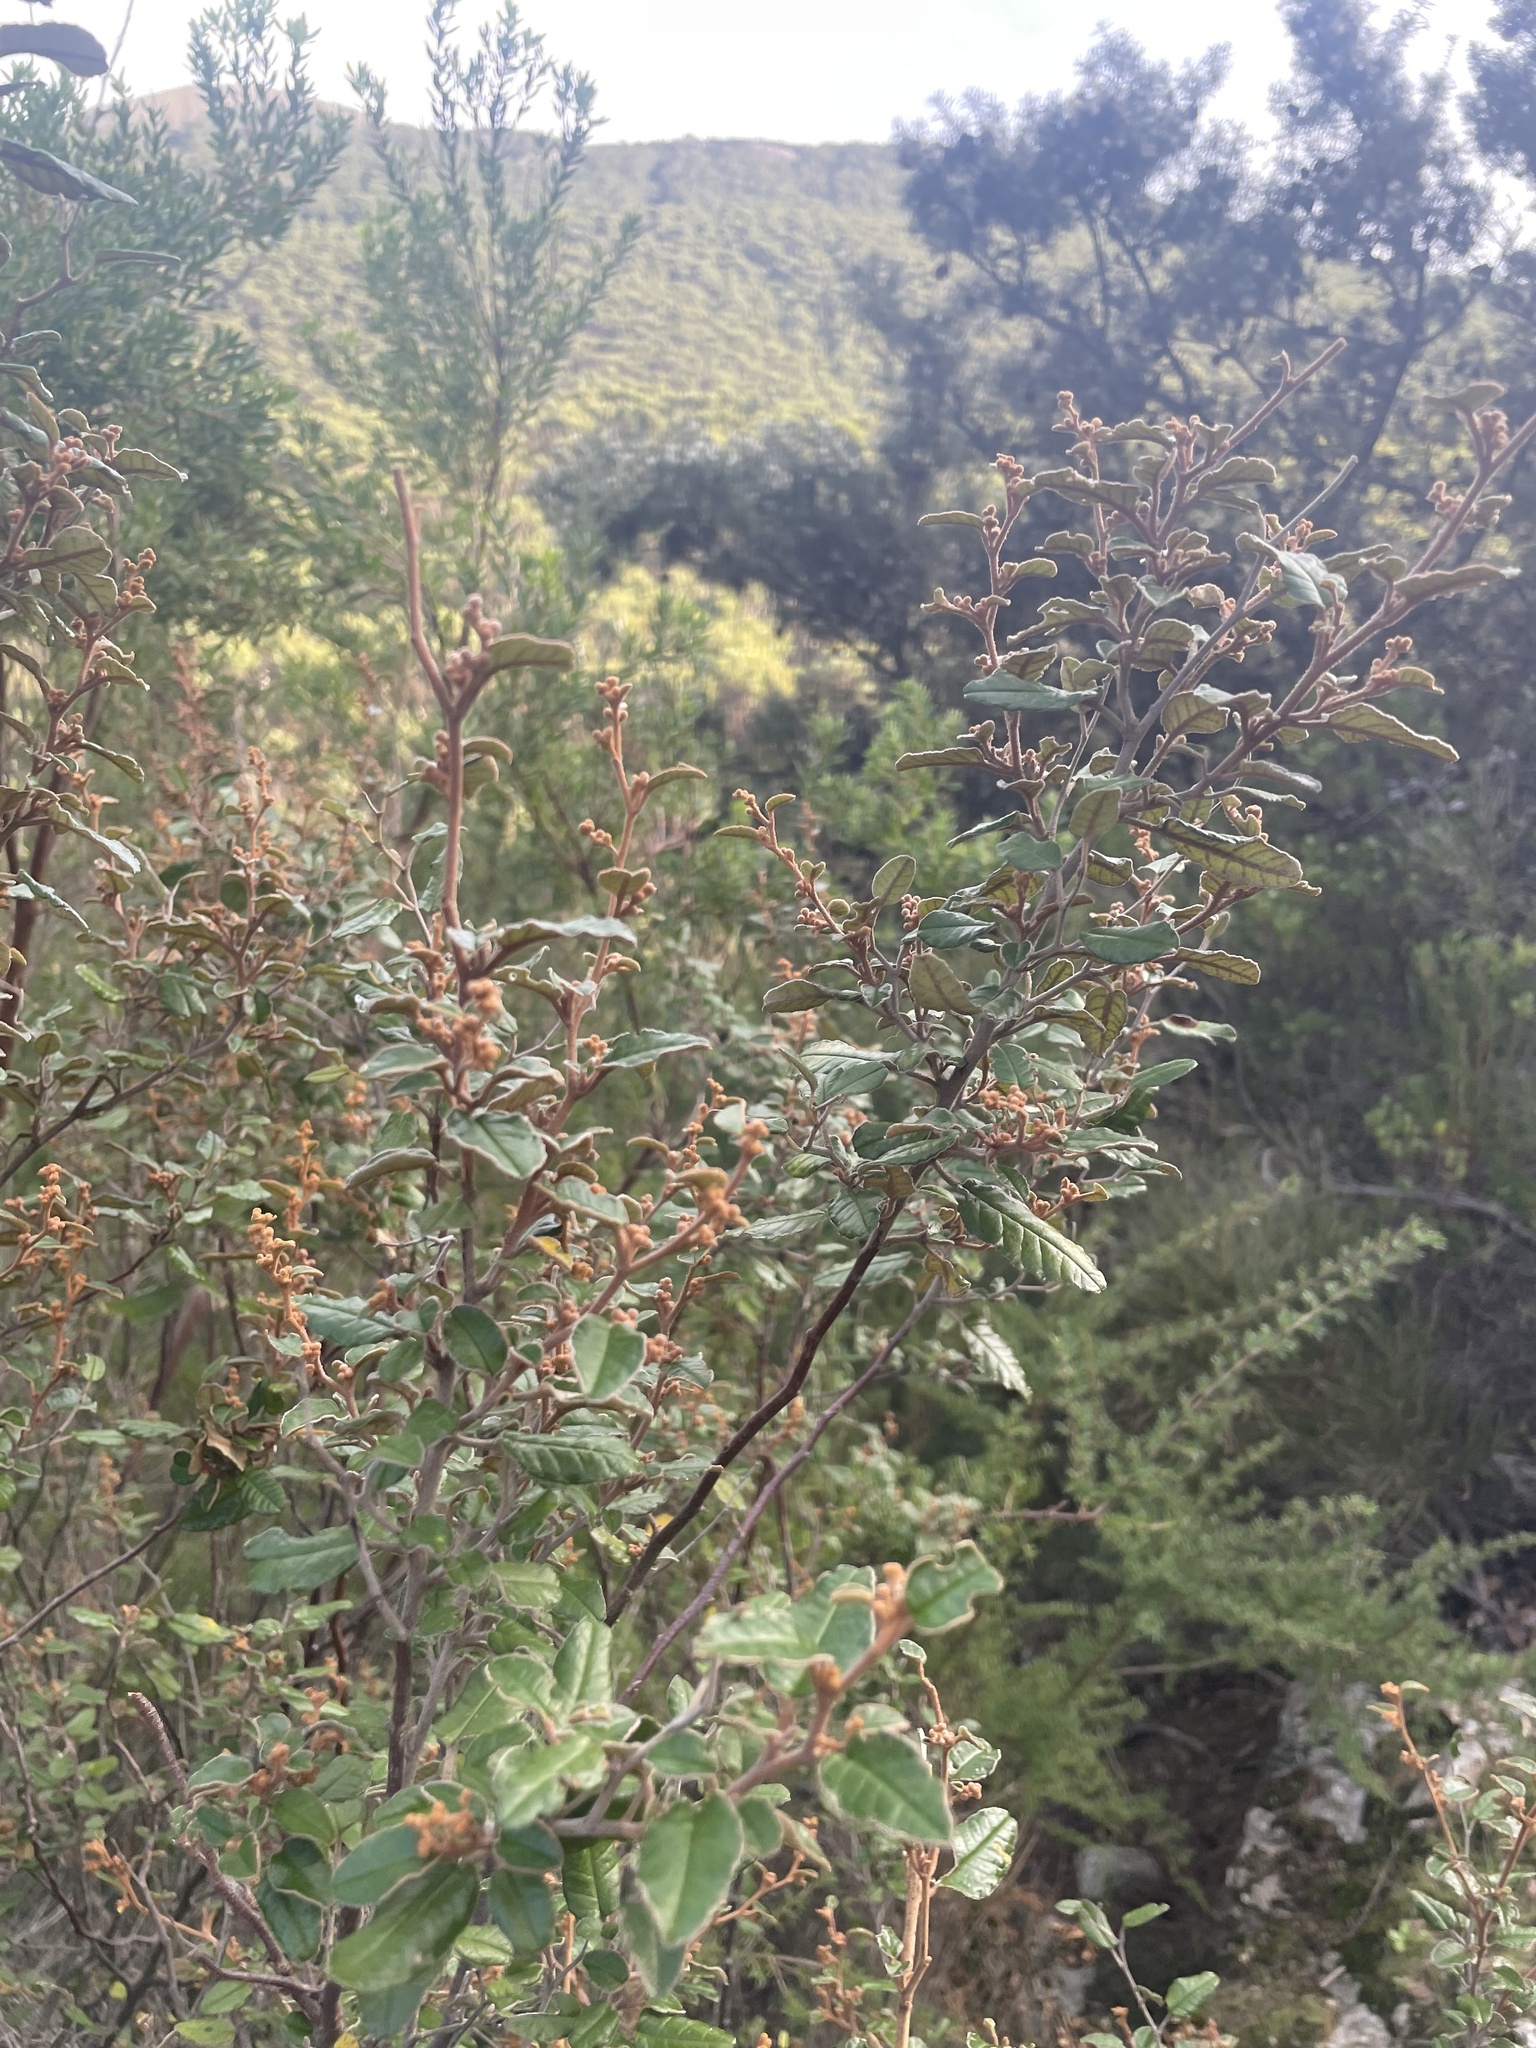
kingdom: Plantae
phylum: Tracheophyta
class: Magnoliopsida
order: Rosales
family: Rhamnaceae
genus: Pomaderris
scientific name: Pomaderris paniculosa
